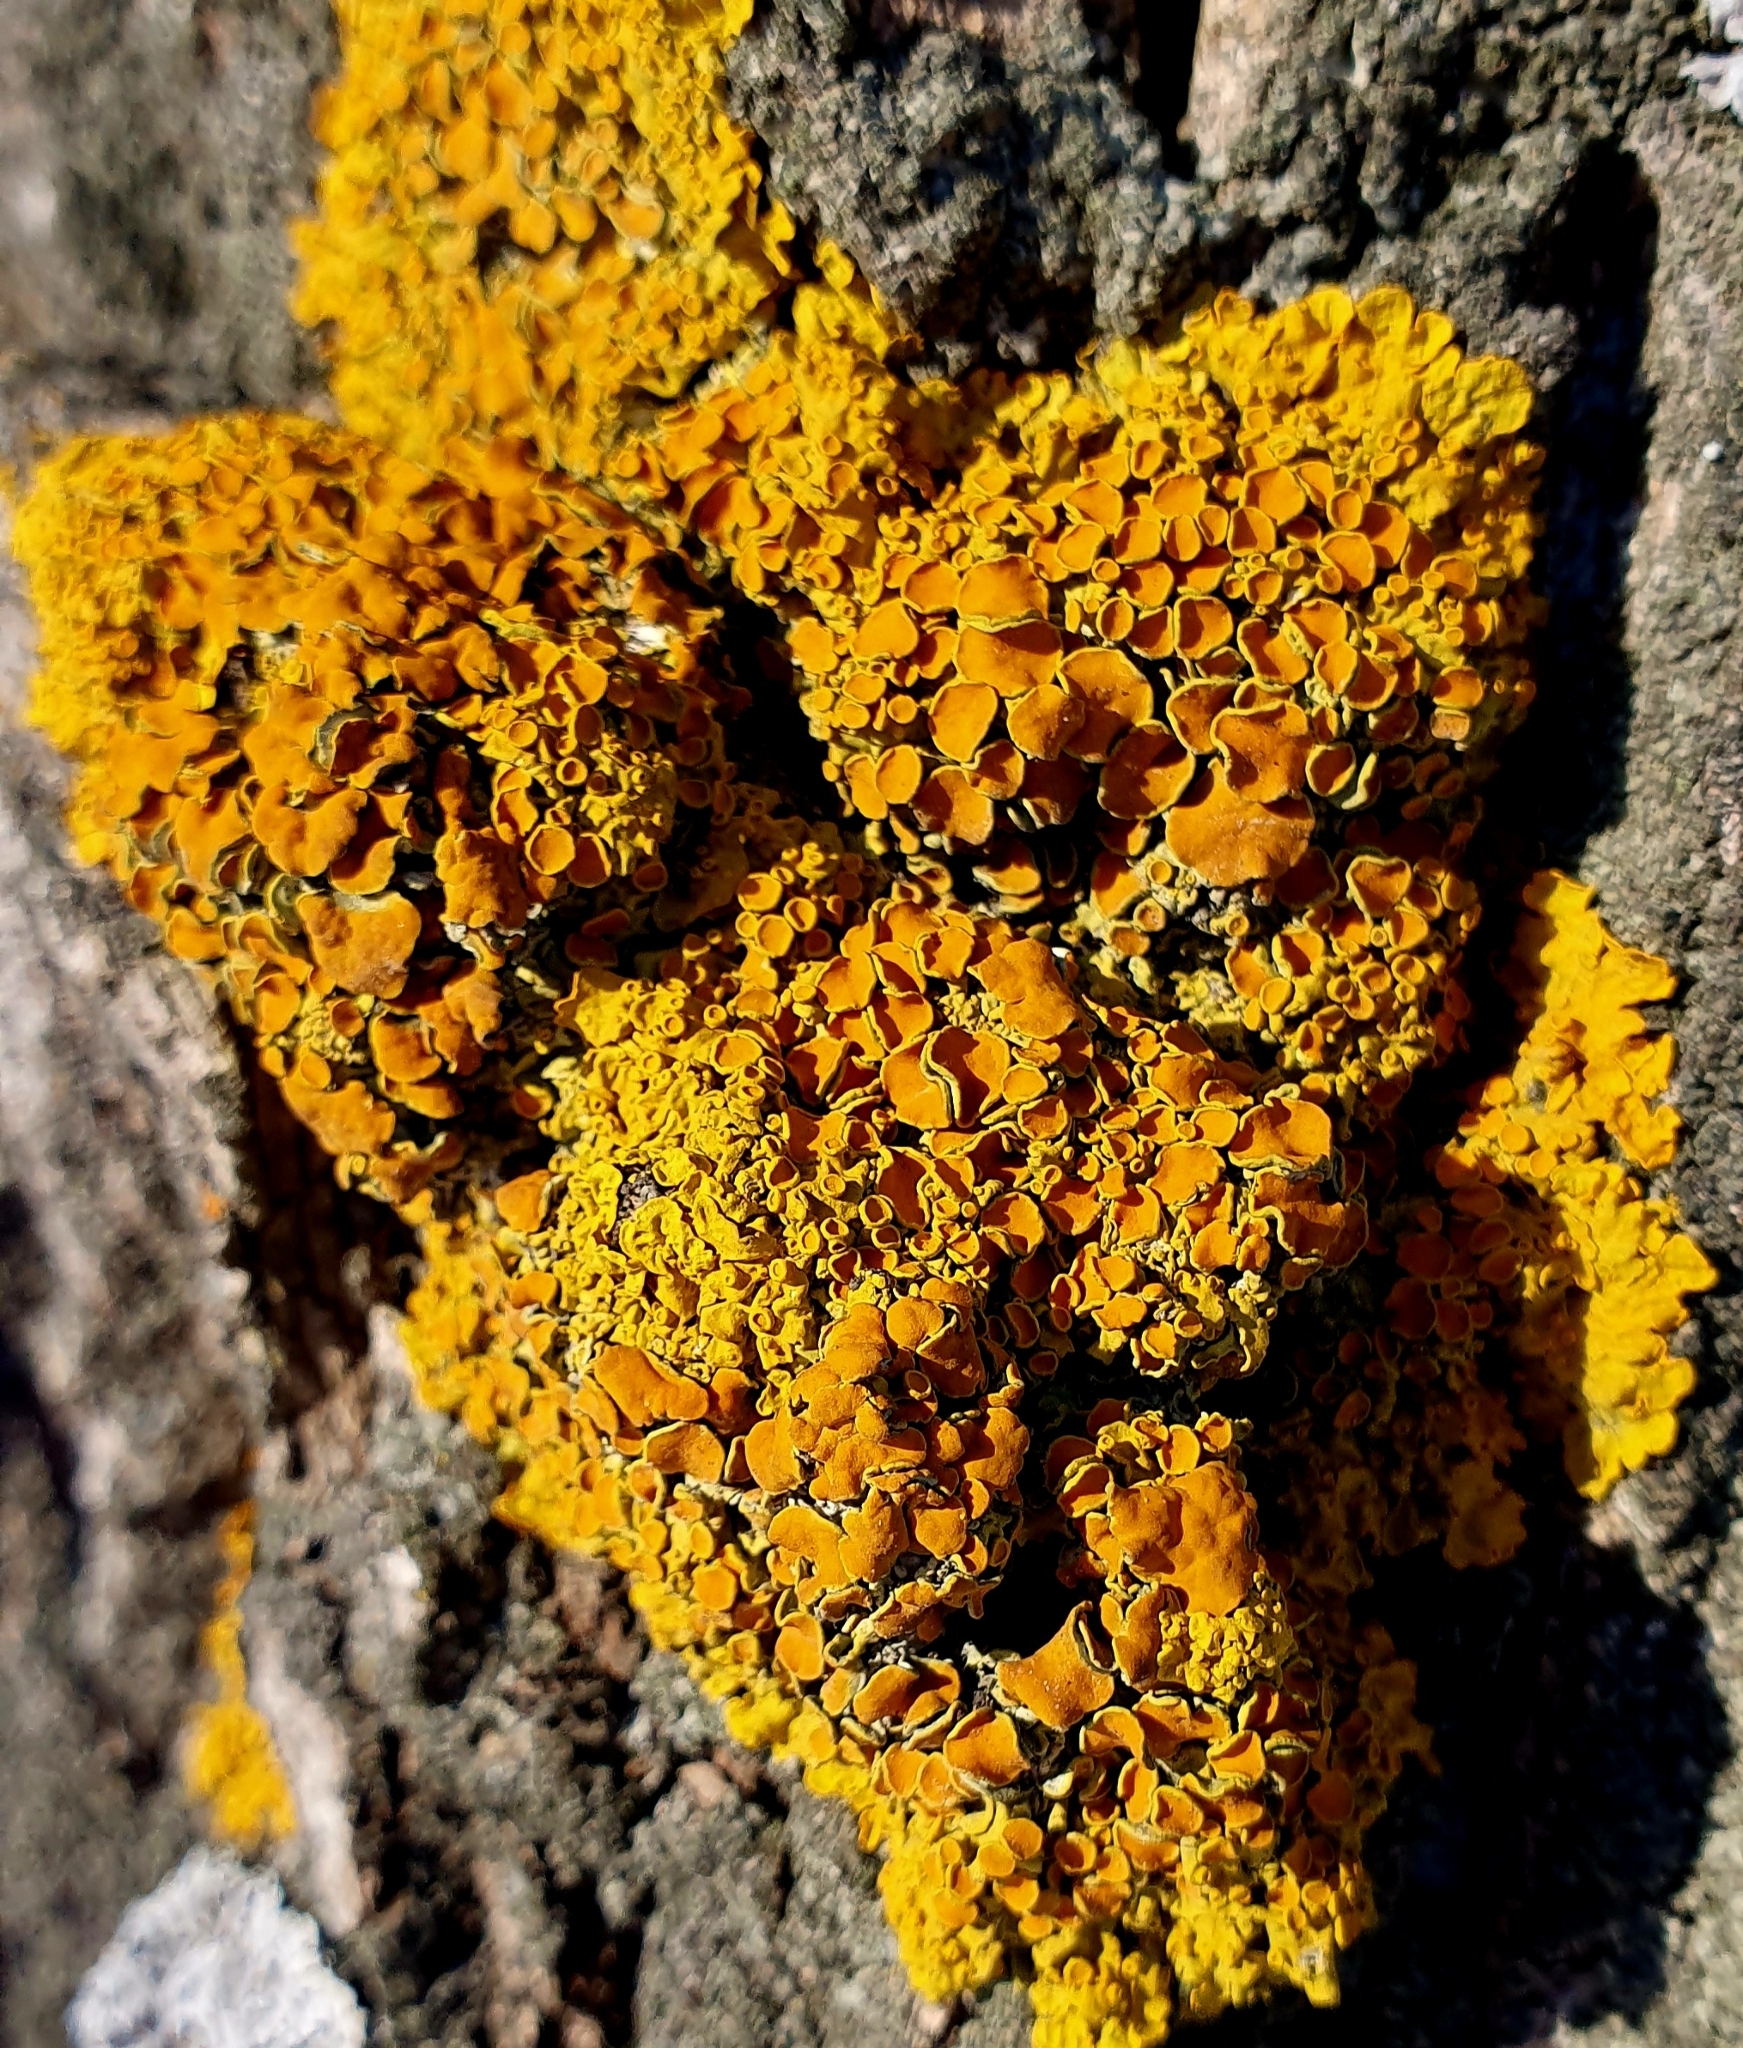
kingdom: Fungi
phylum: Ascomycota
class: Lecanoromycetes
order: Teloschistales
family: Teloschistaceae
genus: Xanthoria
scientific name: Xanthoria parietina
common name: Common orange lichen
